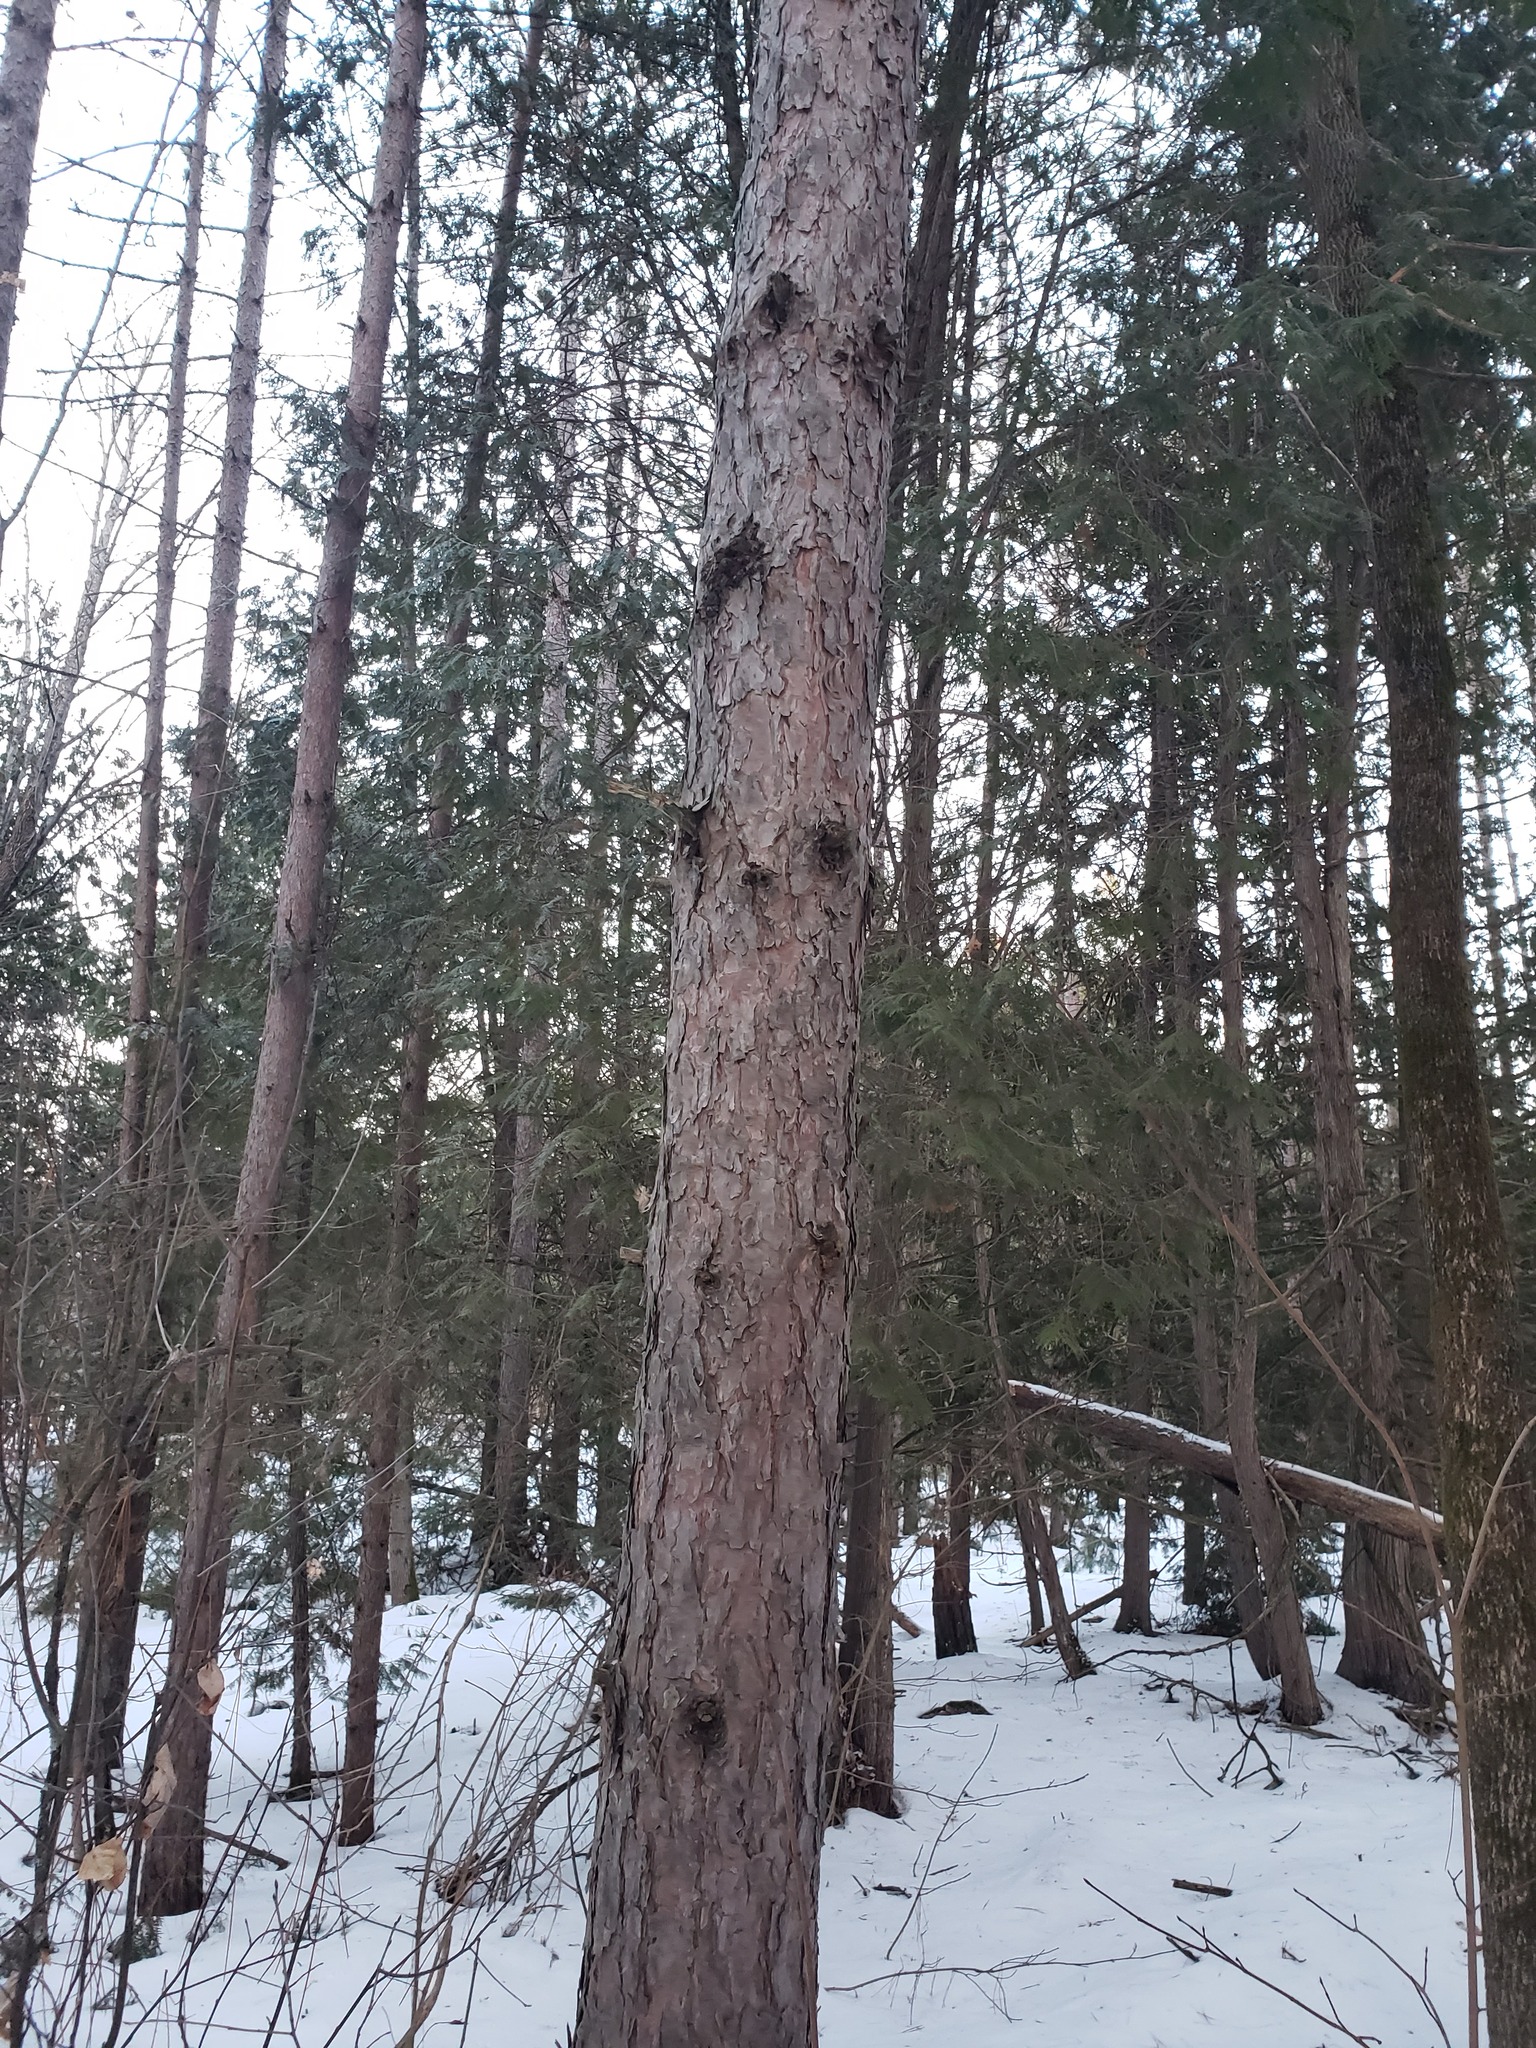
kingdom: Plantae
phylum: Tracheophyta
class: Pinopsida
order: Pinales
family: Pinaceae
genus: Pinus
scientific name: Pinus resinosa
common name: Norway pine
